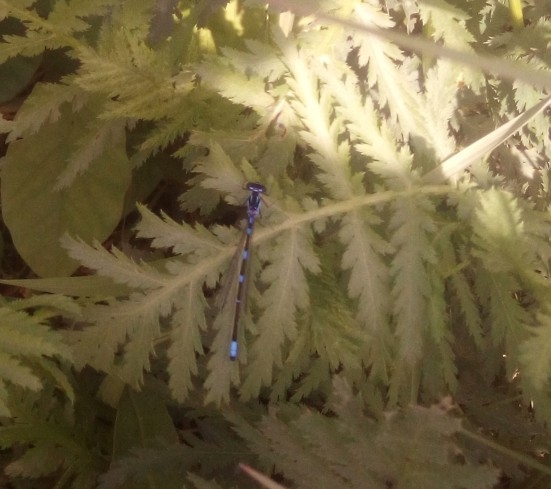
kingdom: Animalia
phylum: Arthropoda
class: Insecta
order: Odonata
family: Coenagrionidae
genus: Coenagrion
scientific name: Coenagrion pulchellum
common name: Variable bluet
